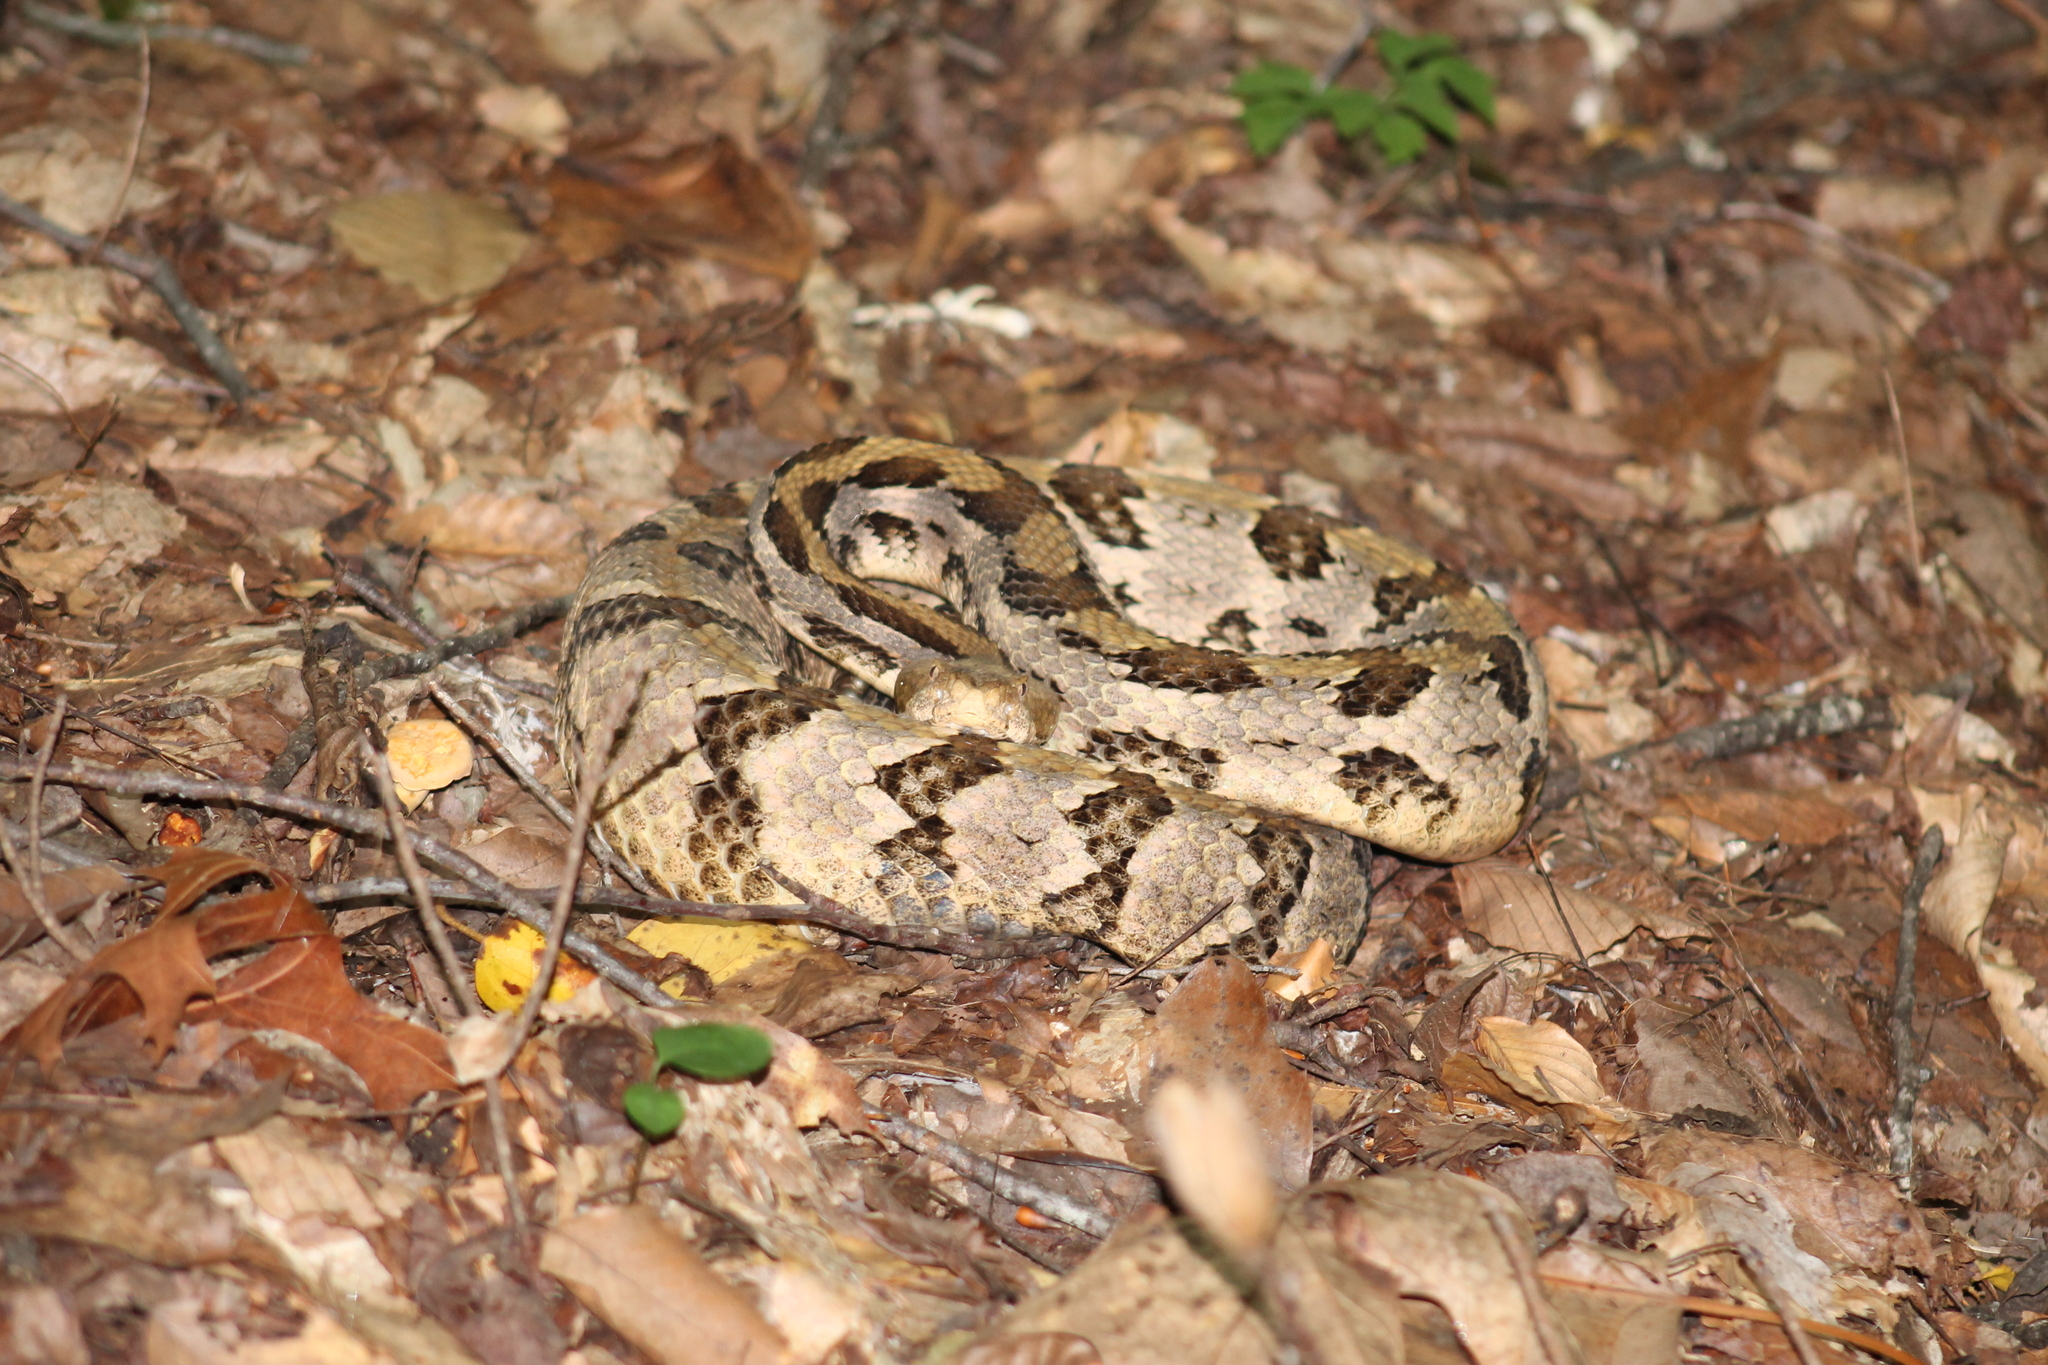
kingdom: Animalia
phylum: Chordata
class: Squamata
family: Viperidae
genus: Crotalus
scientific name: Crotalus horridus
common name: Timber rattlesnake
